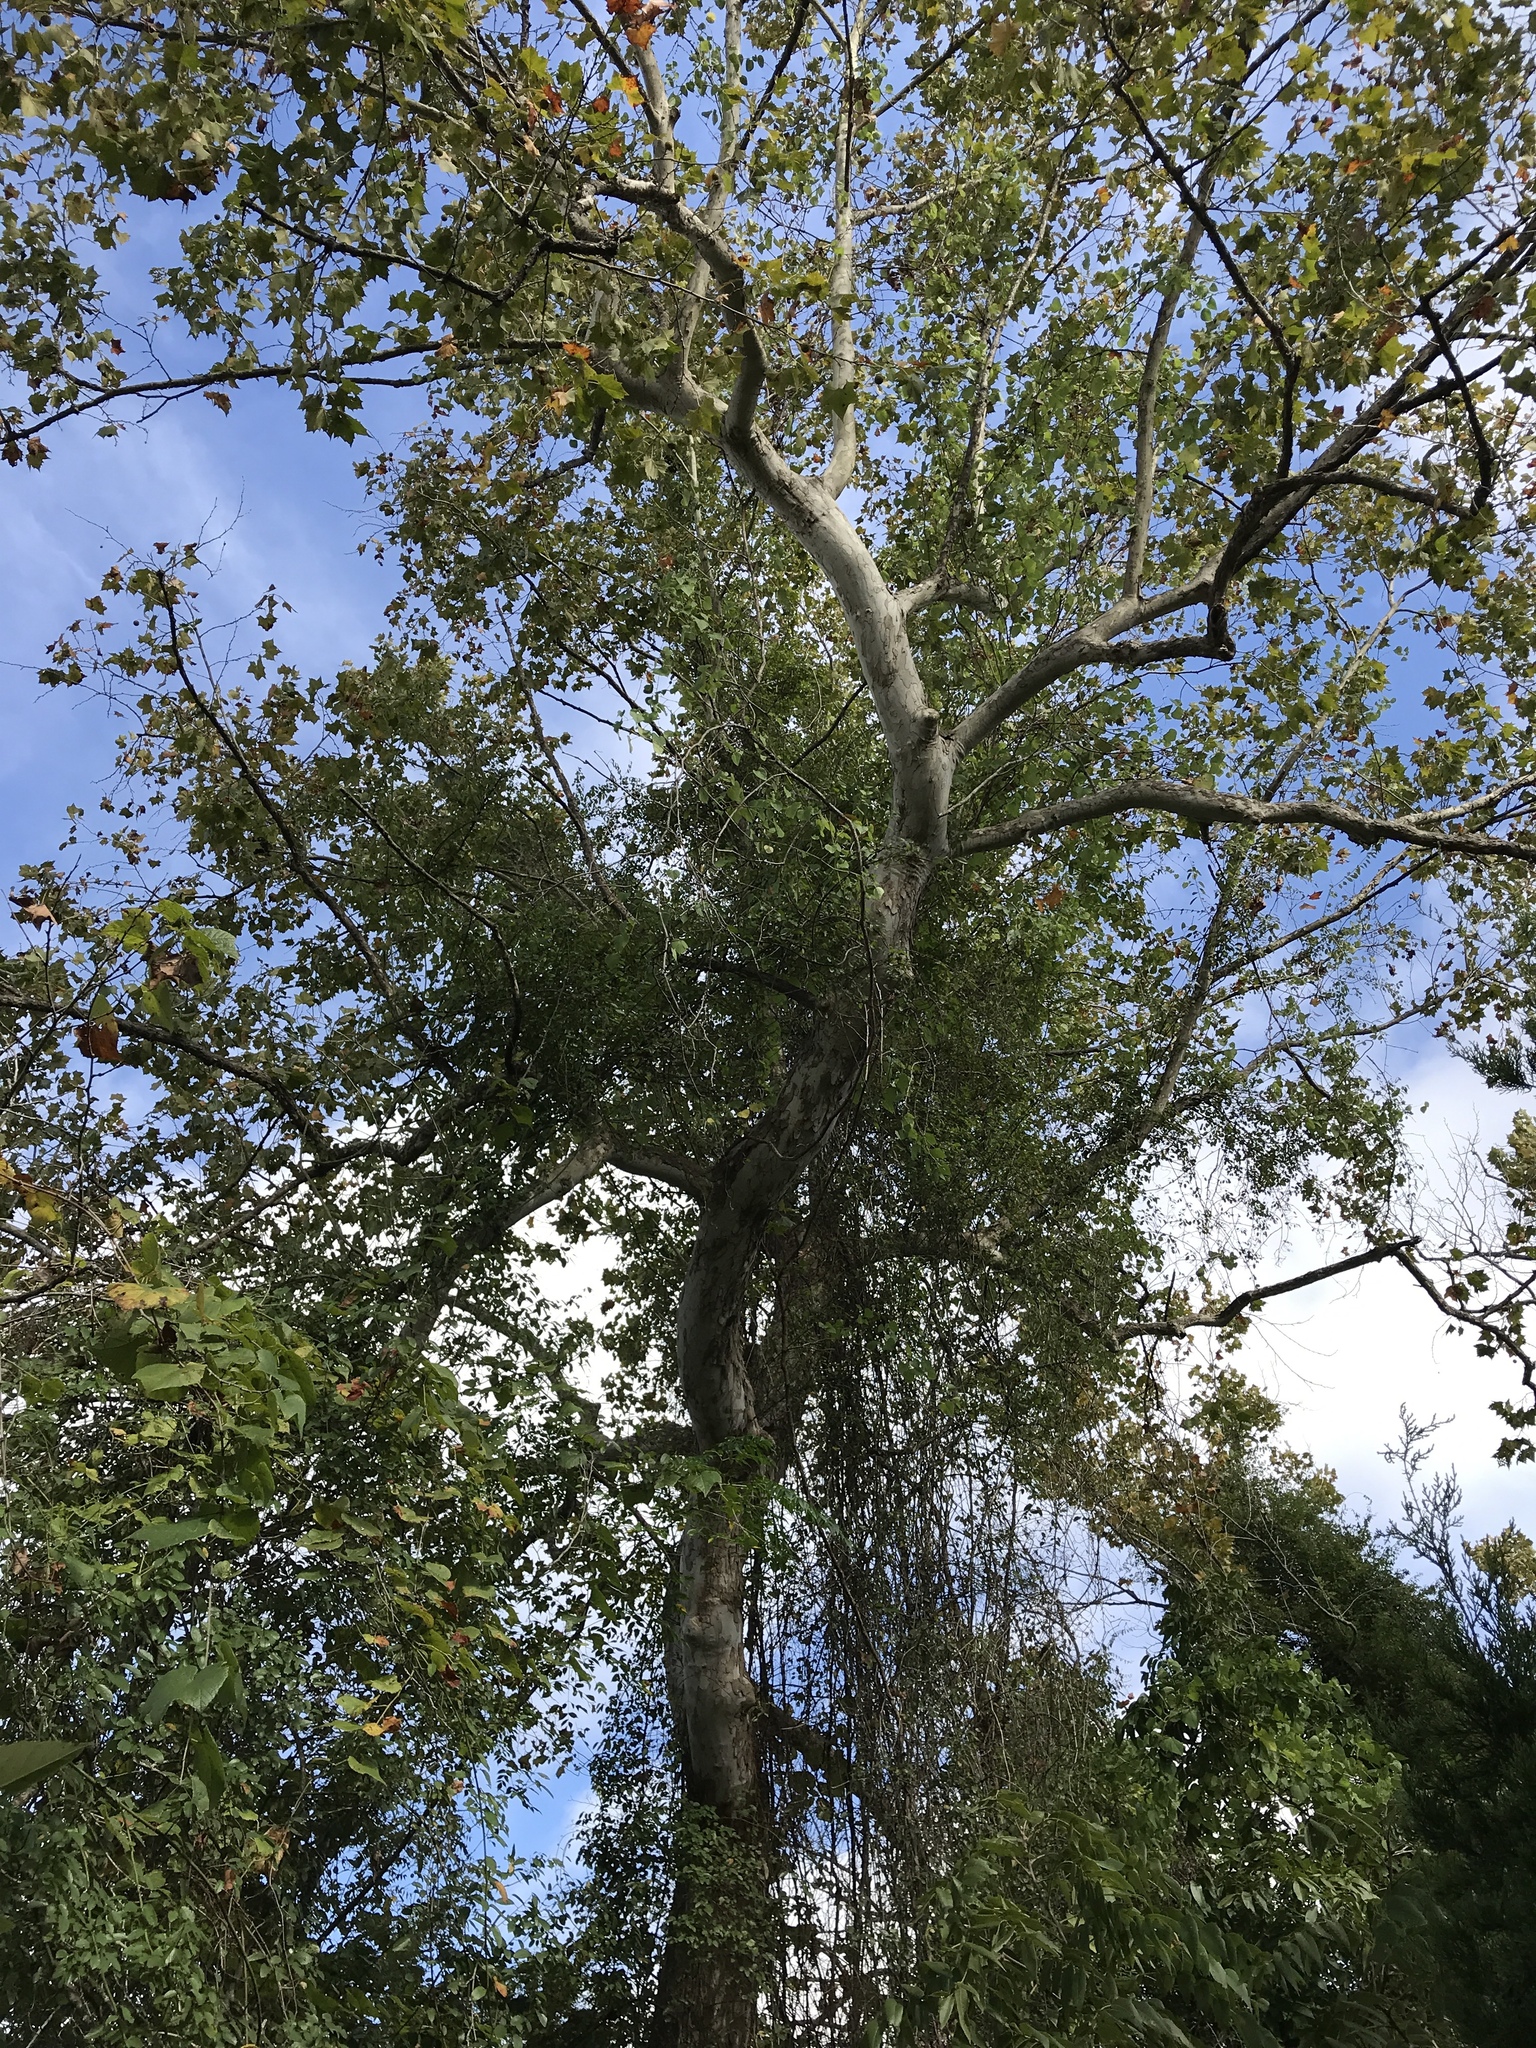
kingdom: Plantae
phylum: Tracheophyta
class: Magnoliopsida
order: Proteales
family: Platanaceae
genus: Platanus
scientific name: Platanus occidentalis
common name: American sycamore
